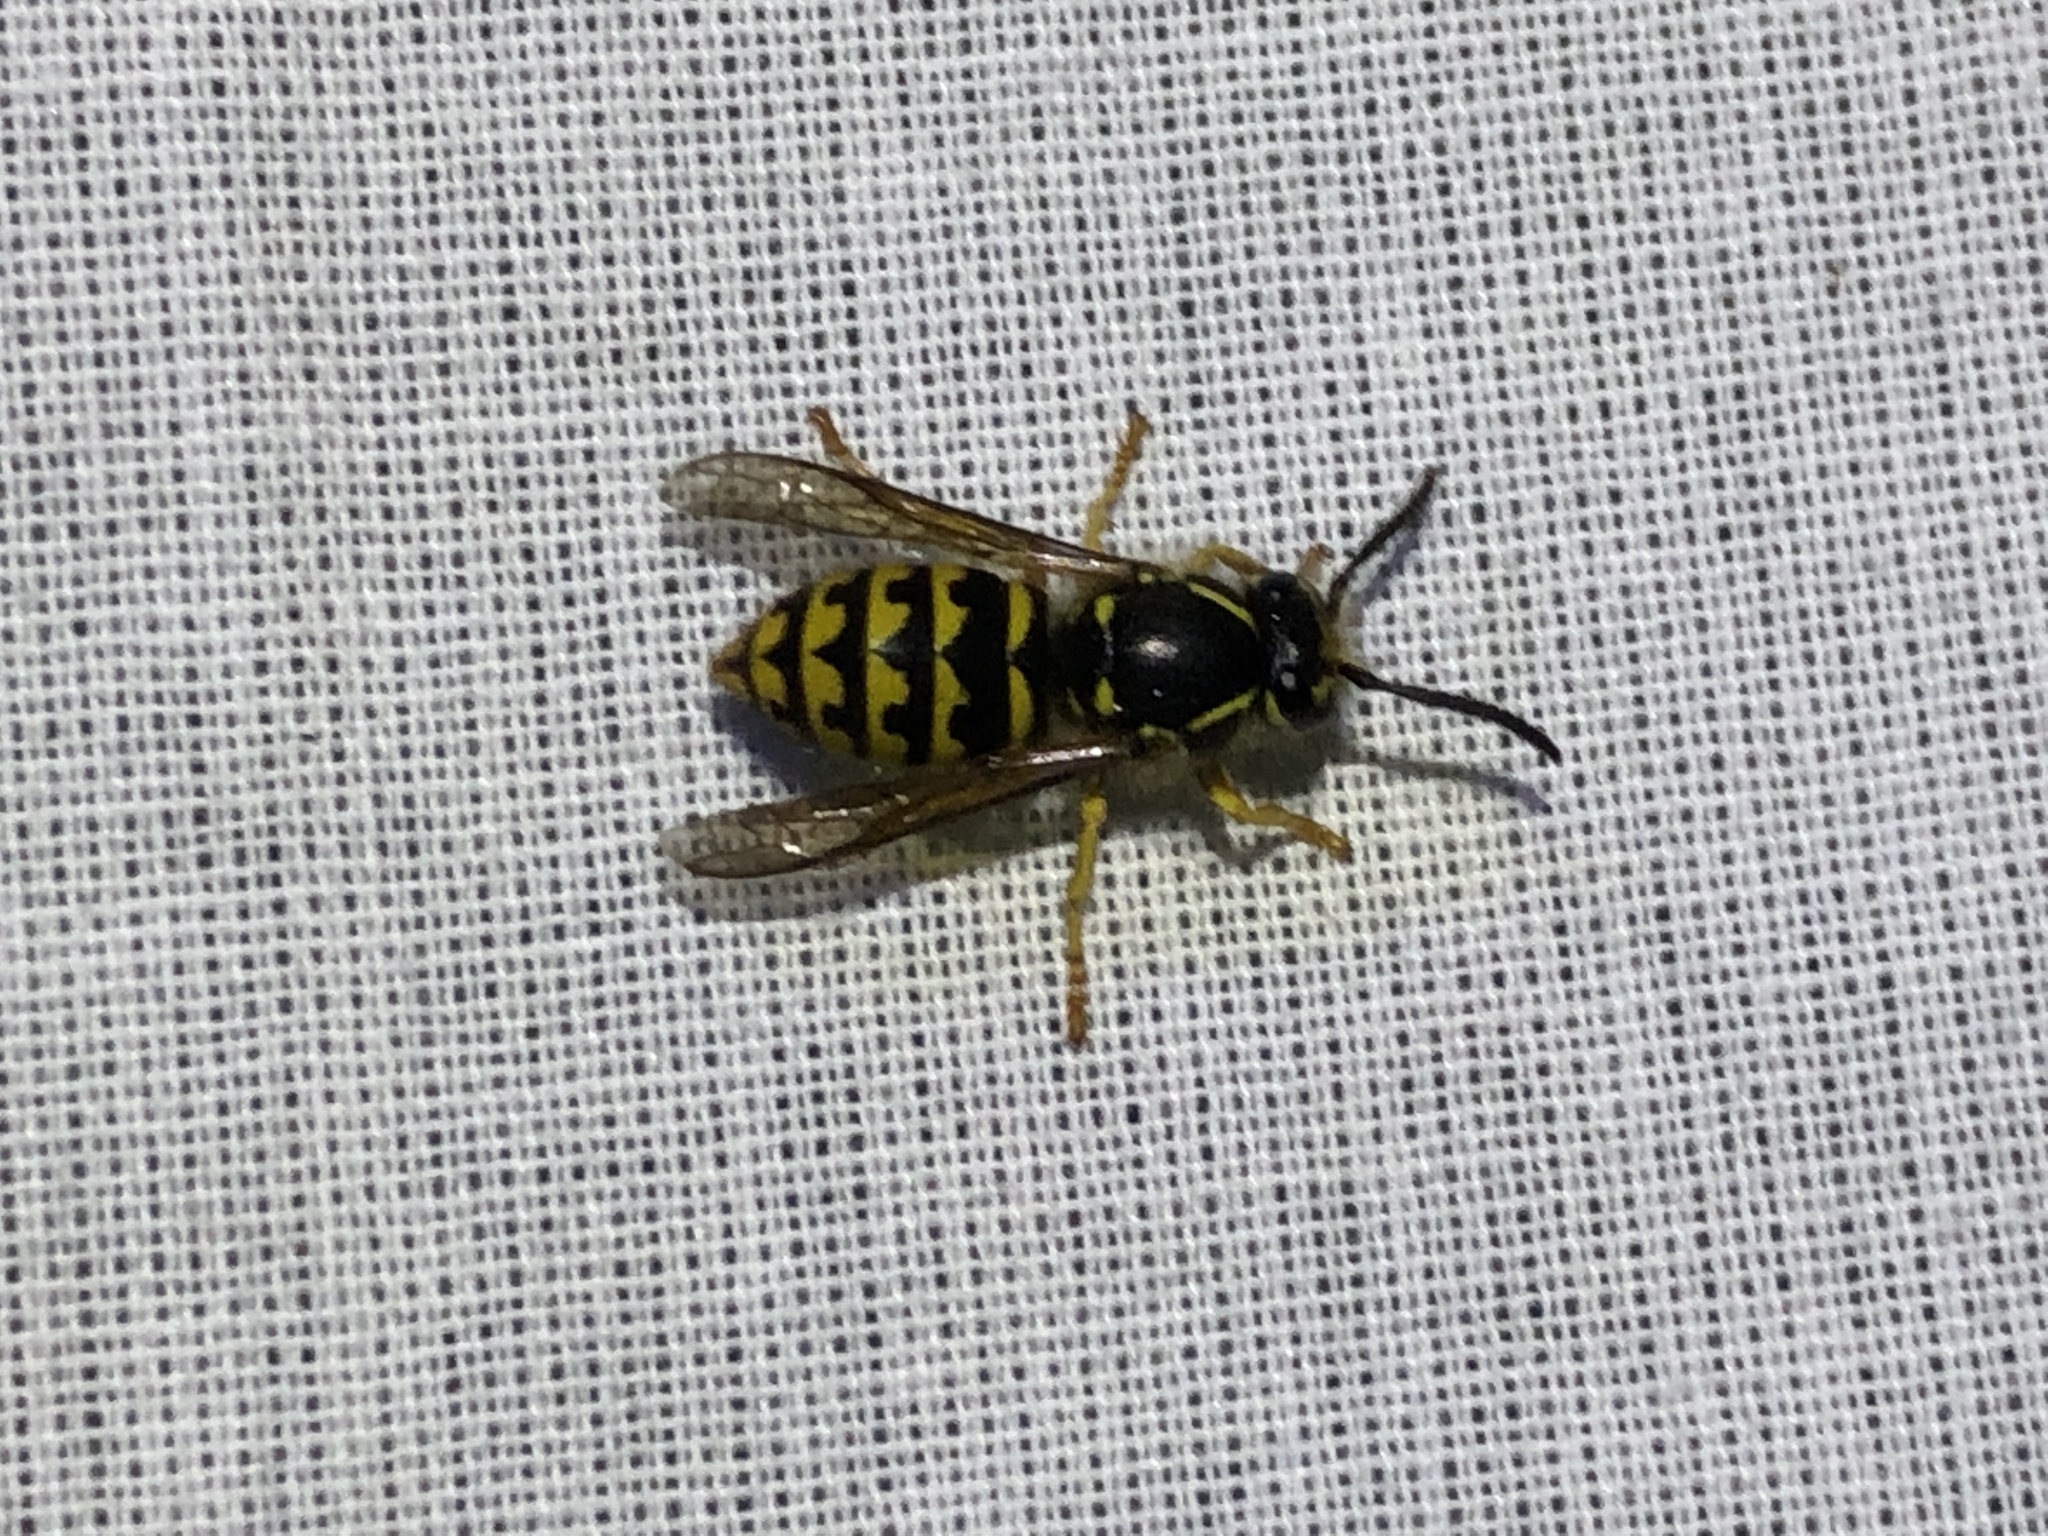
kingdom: Animalia
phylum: Arthropoda
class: Insecta
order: Hymenoptera
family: Vespidae
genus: Dolichovespula
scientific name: Dolichovespula arenaria
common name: Aerial yellowjacket
